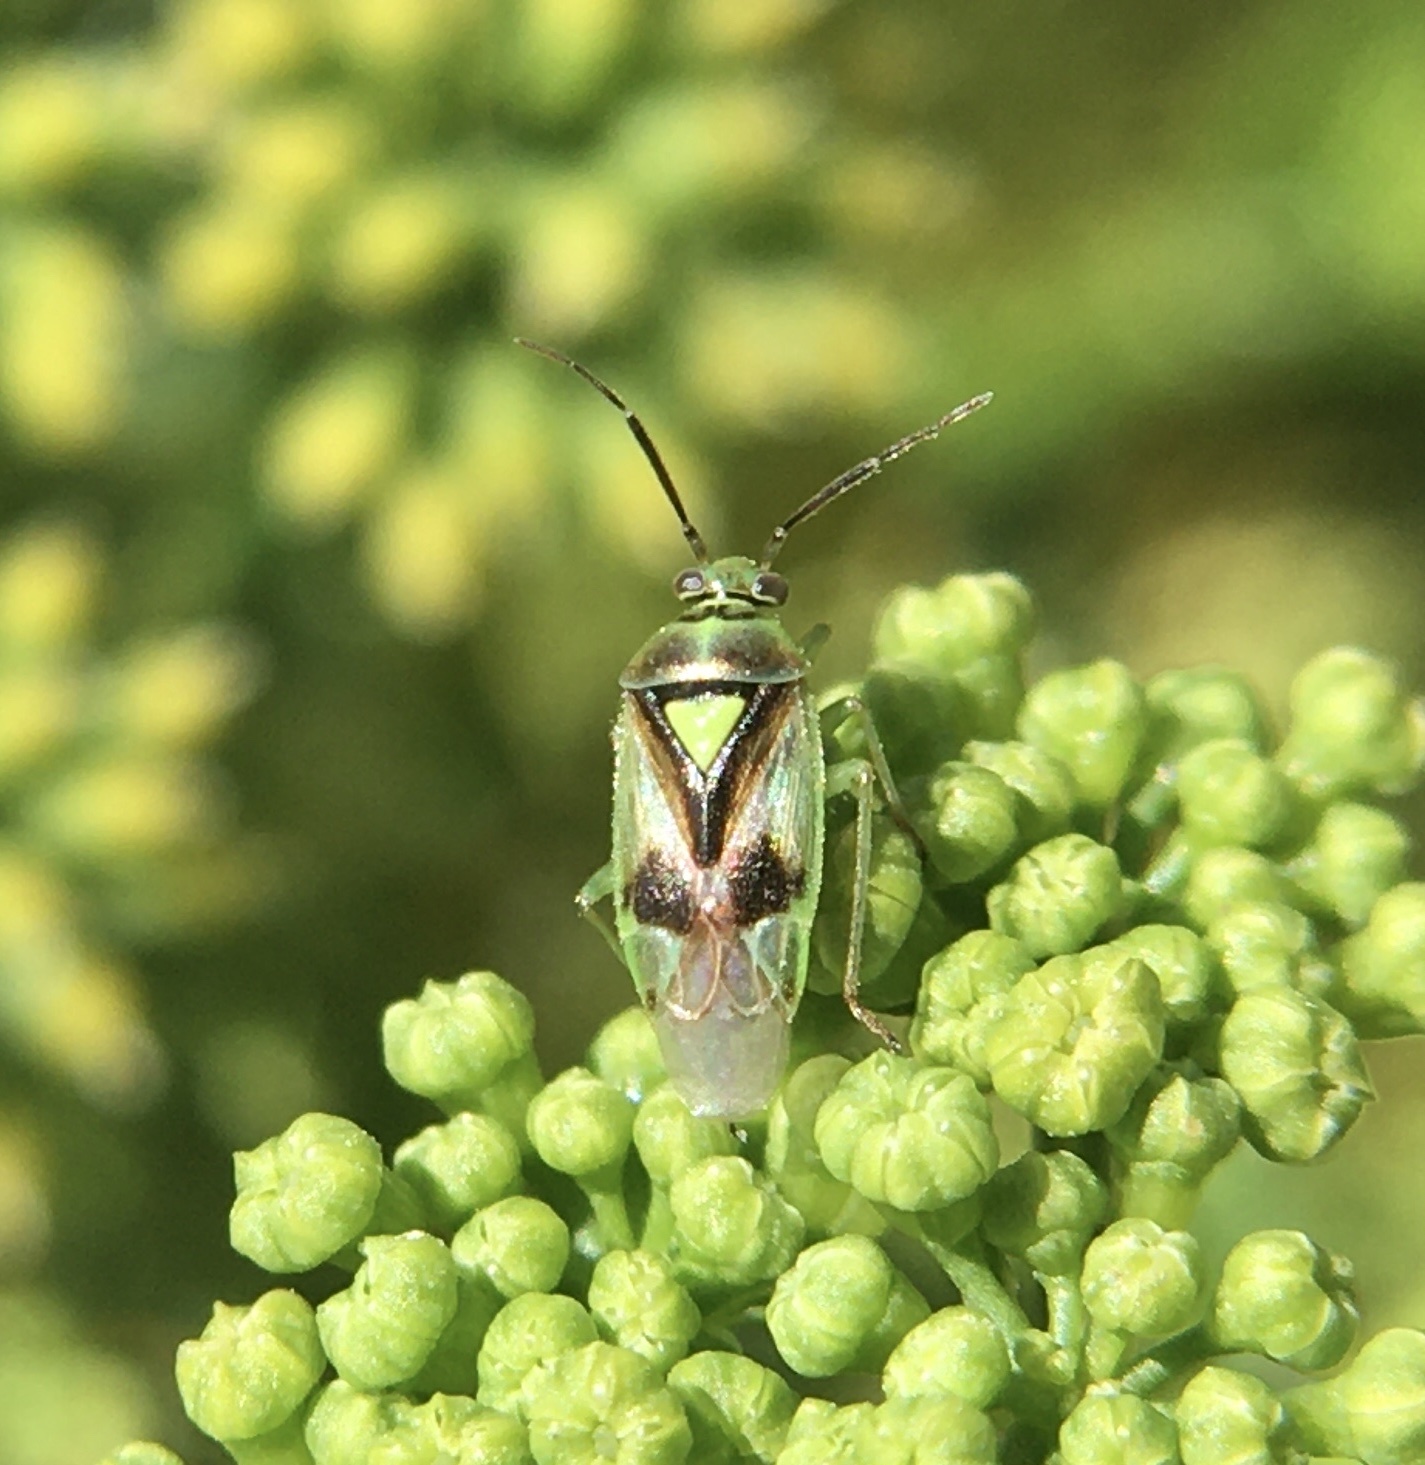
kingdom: Animalia
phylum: Arthropoda
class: Insecta
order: Hemiptera
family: Miridae
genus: Orthops
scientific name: Orthops campestris
